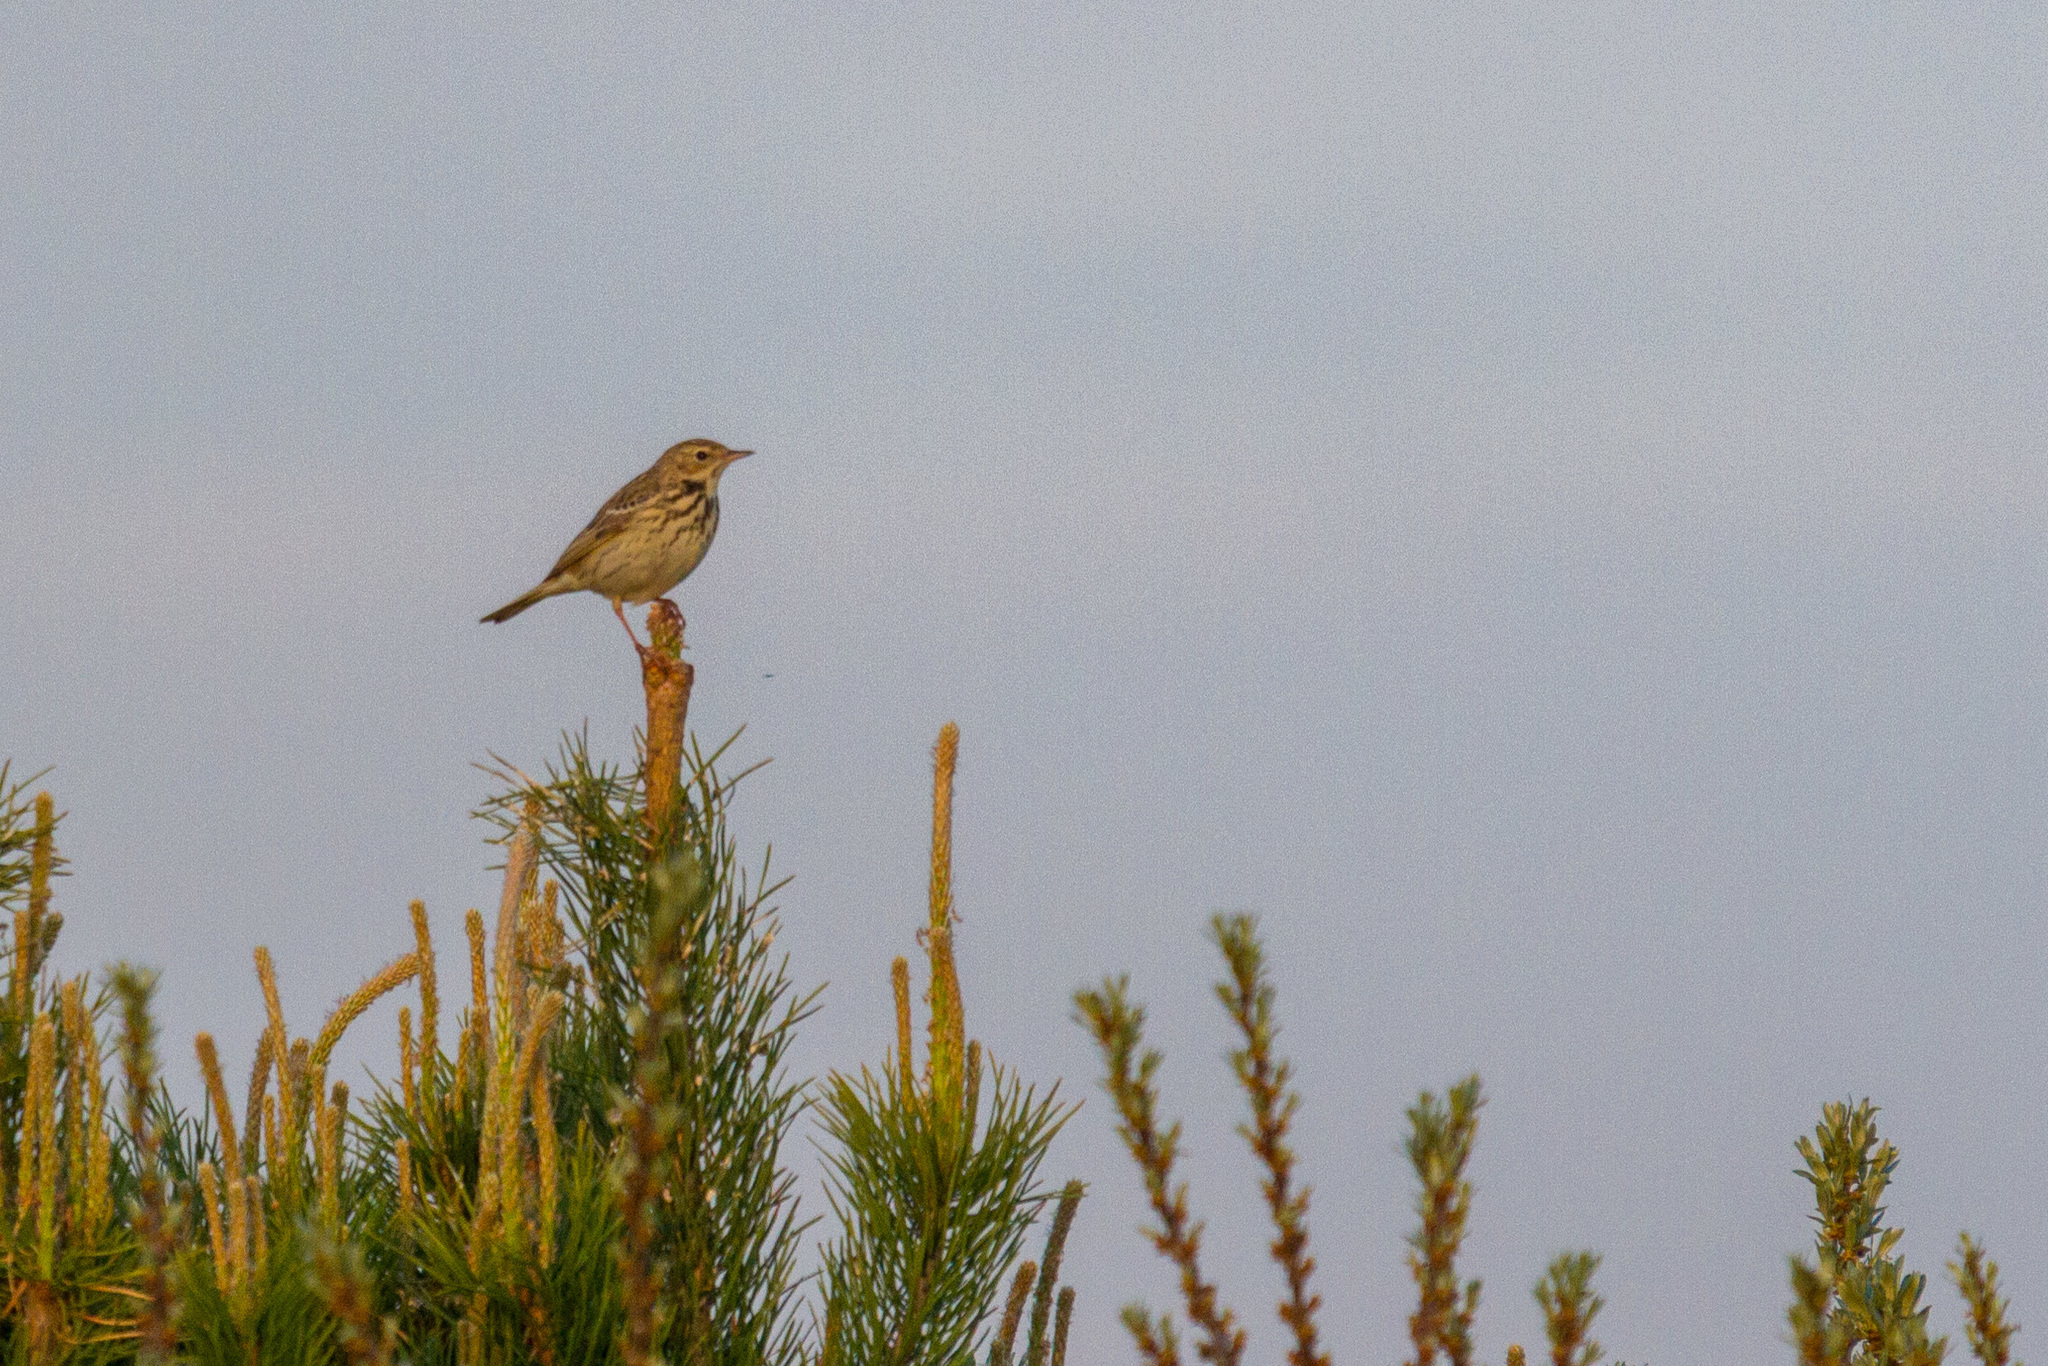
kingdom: Animalia
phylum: Chordata
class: Aves
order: Passeriformes
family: Motacillidae
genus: Anthus
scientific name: Anthus trivialis
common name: Tree pipit
